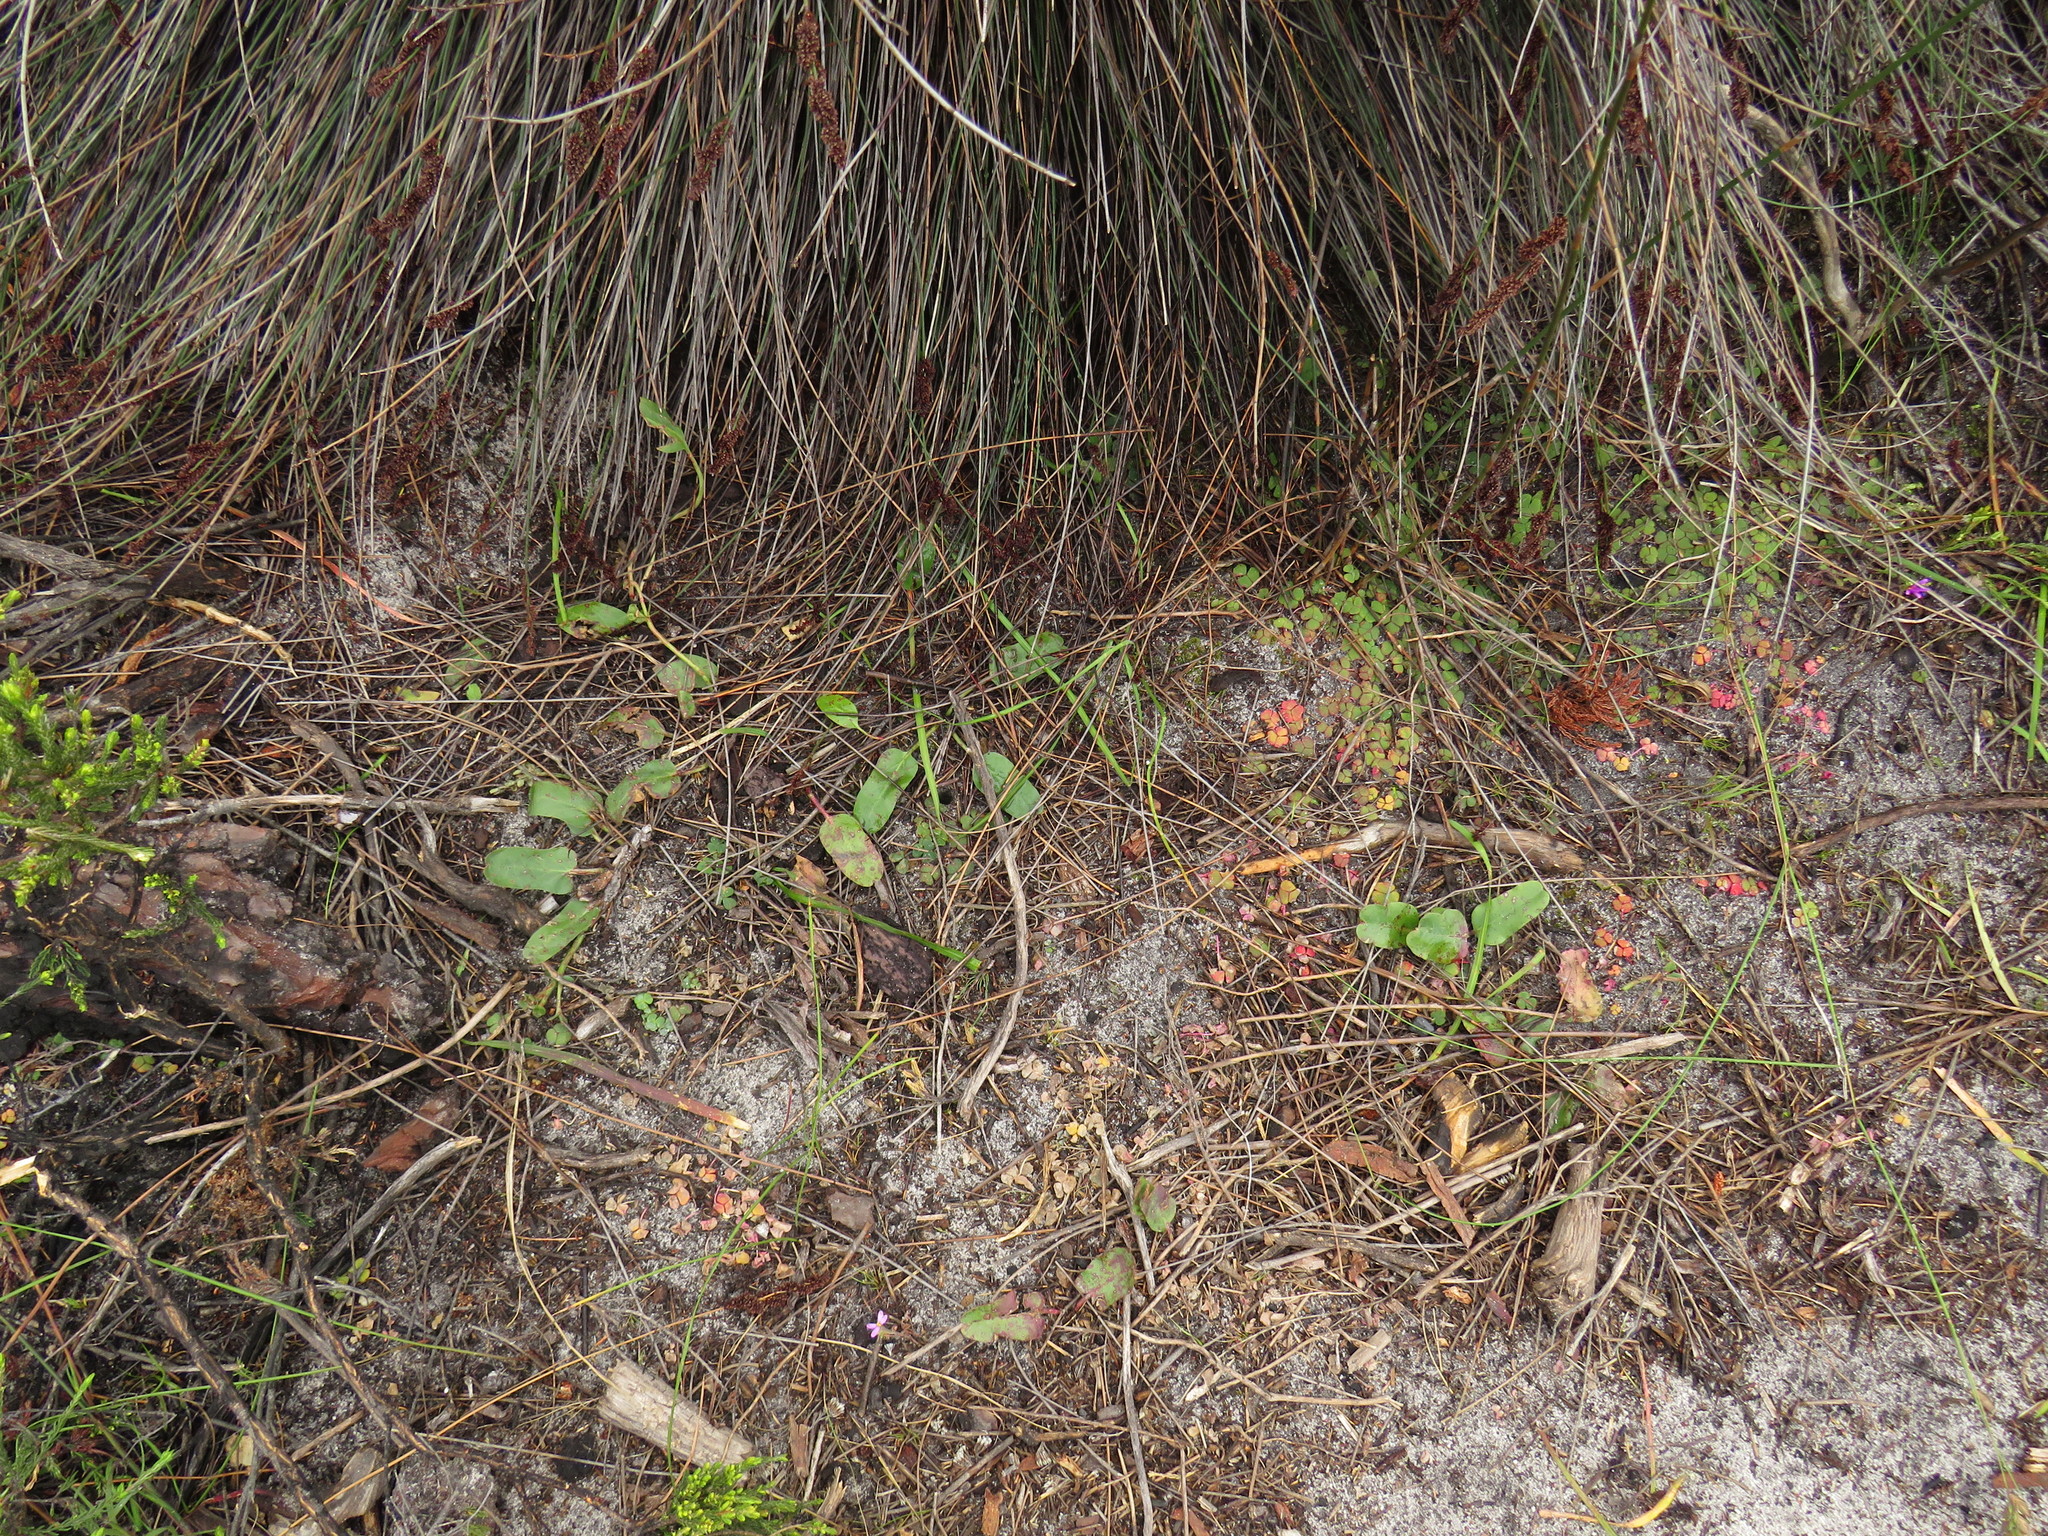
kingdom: Plantae
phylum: Tracheophyta
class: Magnoliopsida
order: Malpighiales
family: Euphorbiaceae
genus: Euphorbia
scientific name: Euphorbia tuberosa
